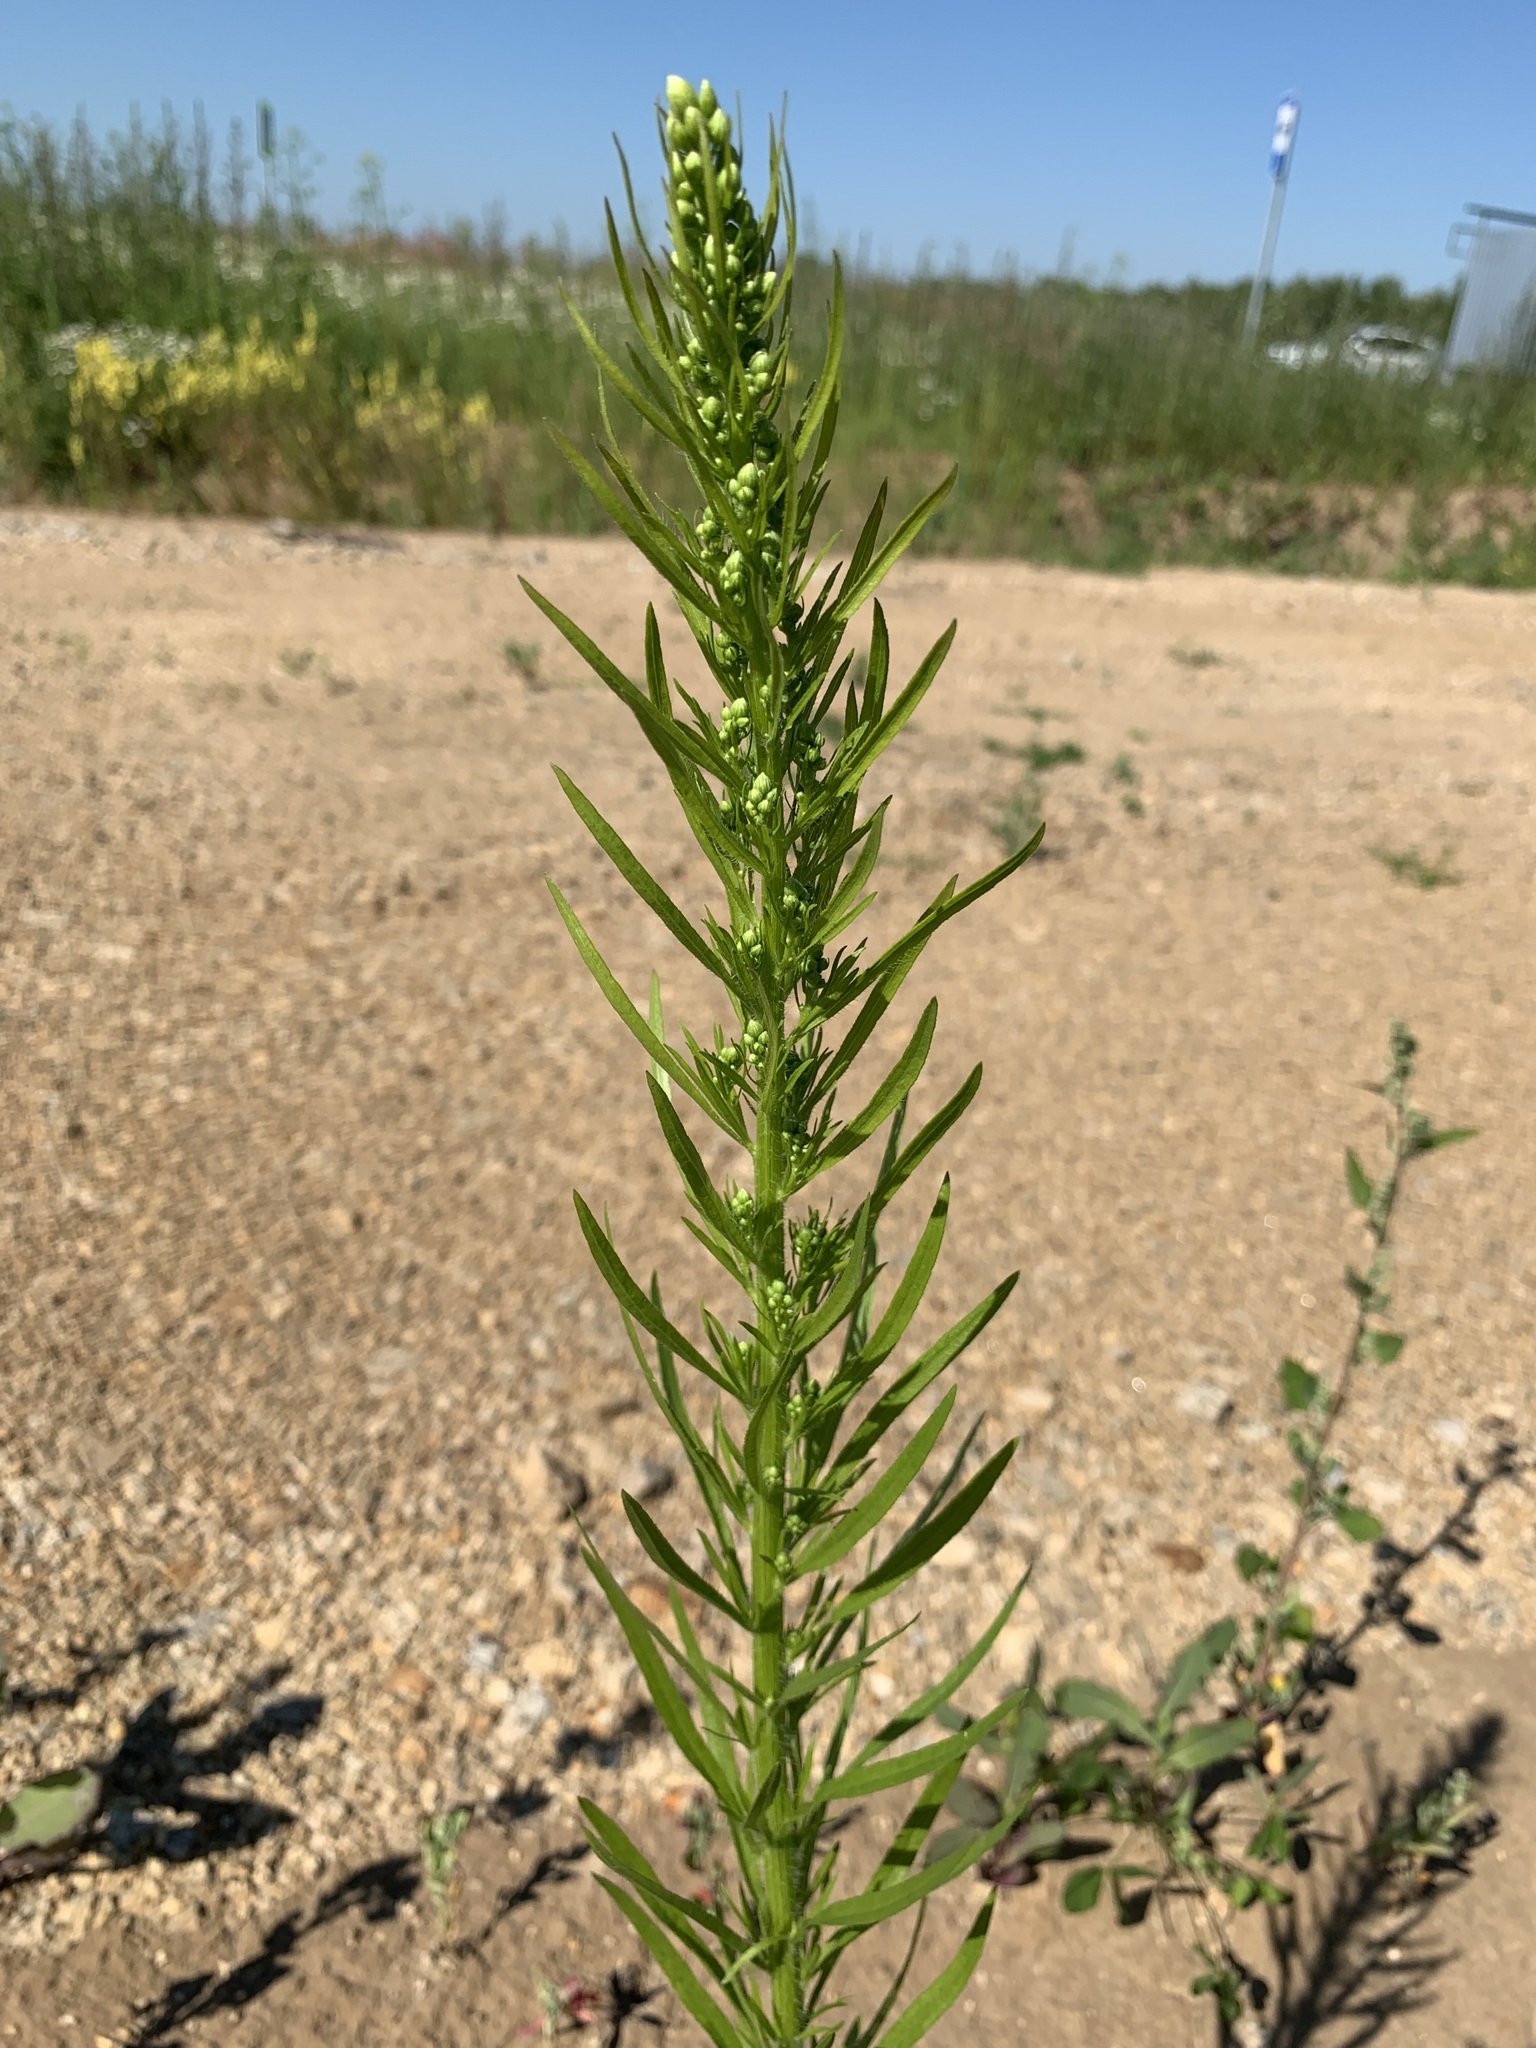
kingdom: Plantae
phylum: Tracheophyta
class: Magnoliopsida
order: Asterales
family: Asteraceae
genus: Erigeron
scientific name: Erigeron canadensis
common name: Canadian fleabane
